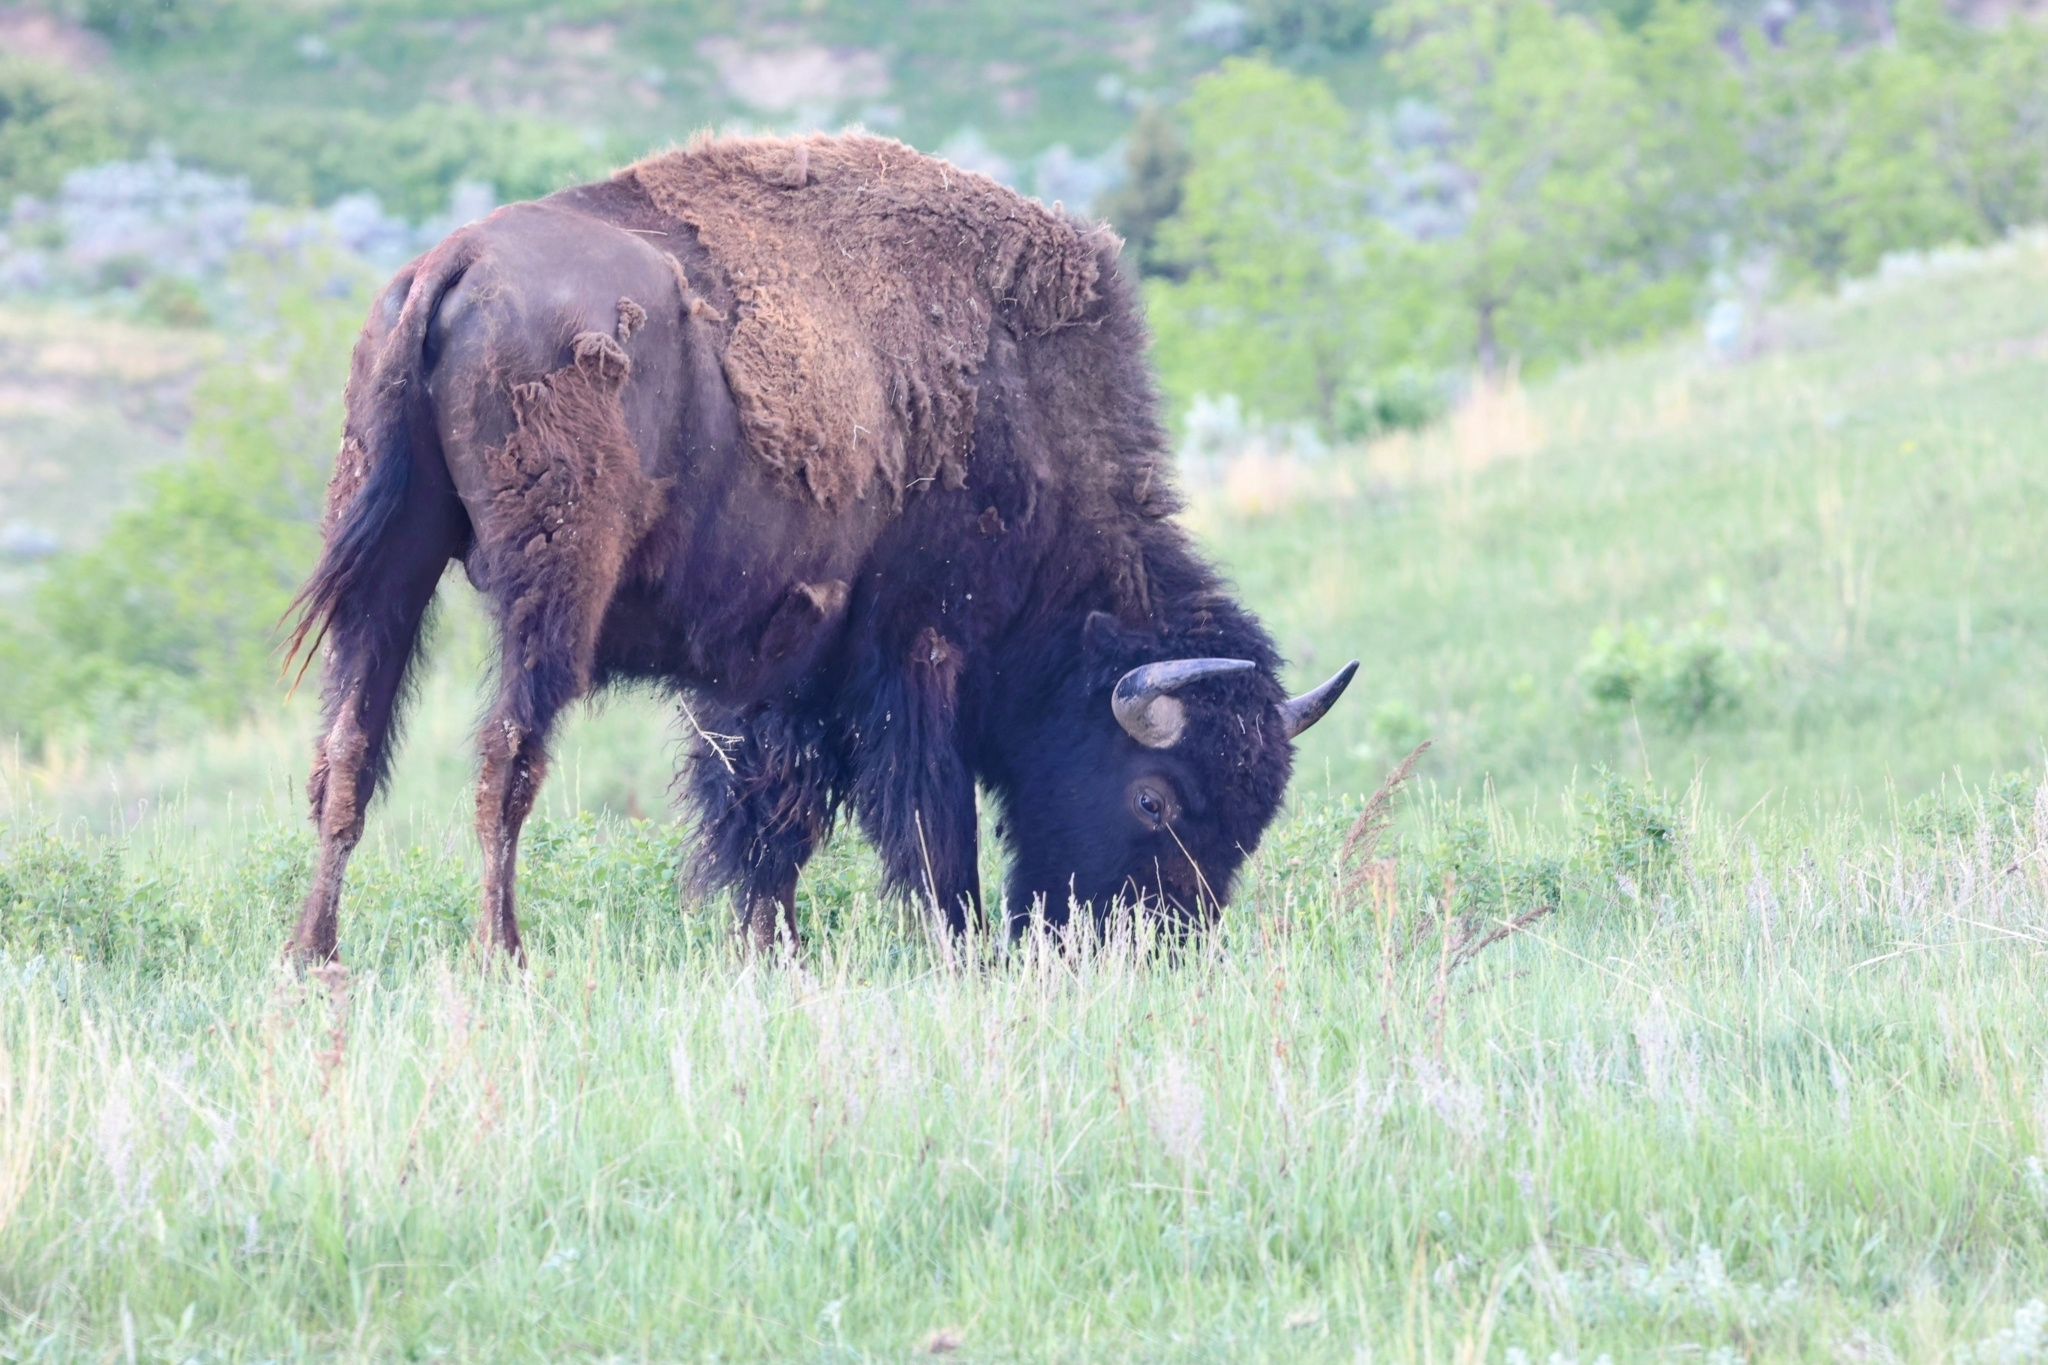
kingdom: Animalia
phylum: Chordata
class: Mammalia
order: Artiodactyla
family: Bovidae
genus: Bison
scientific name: Bison bison
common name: American bison
